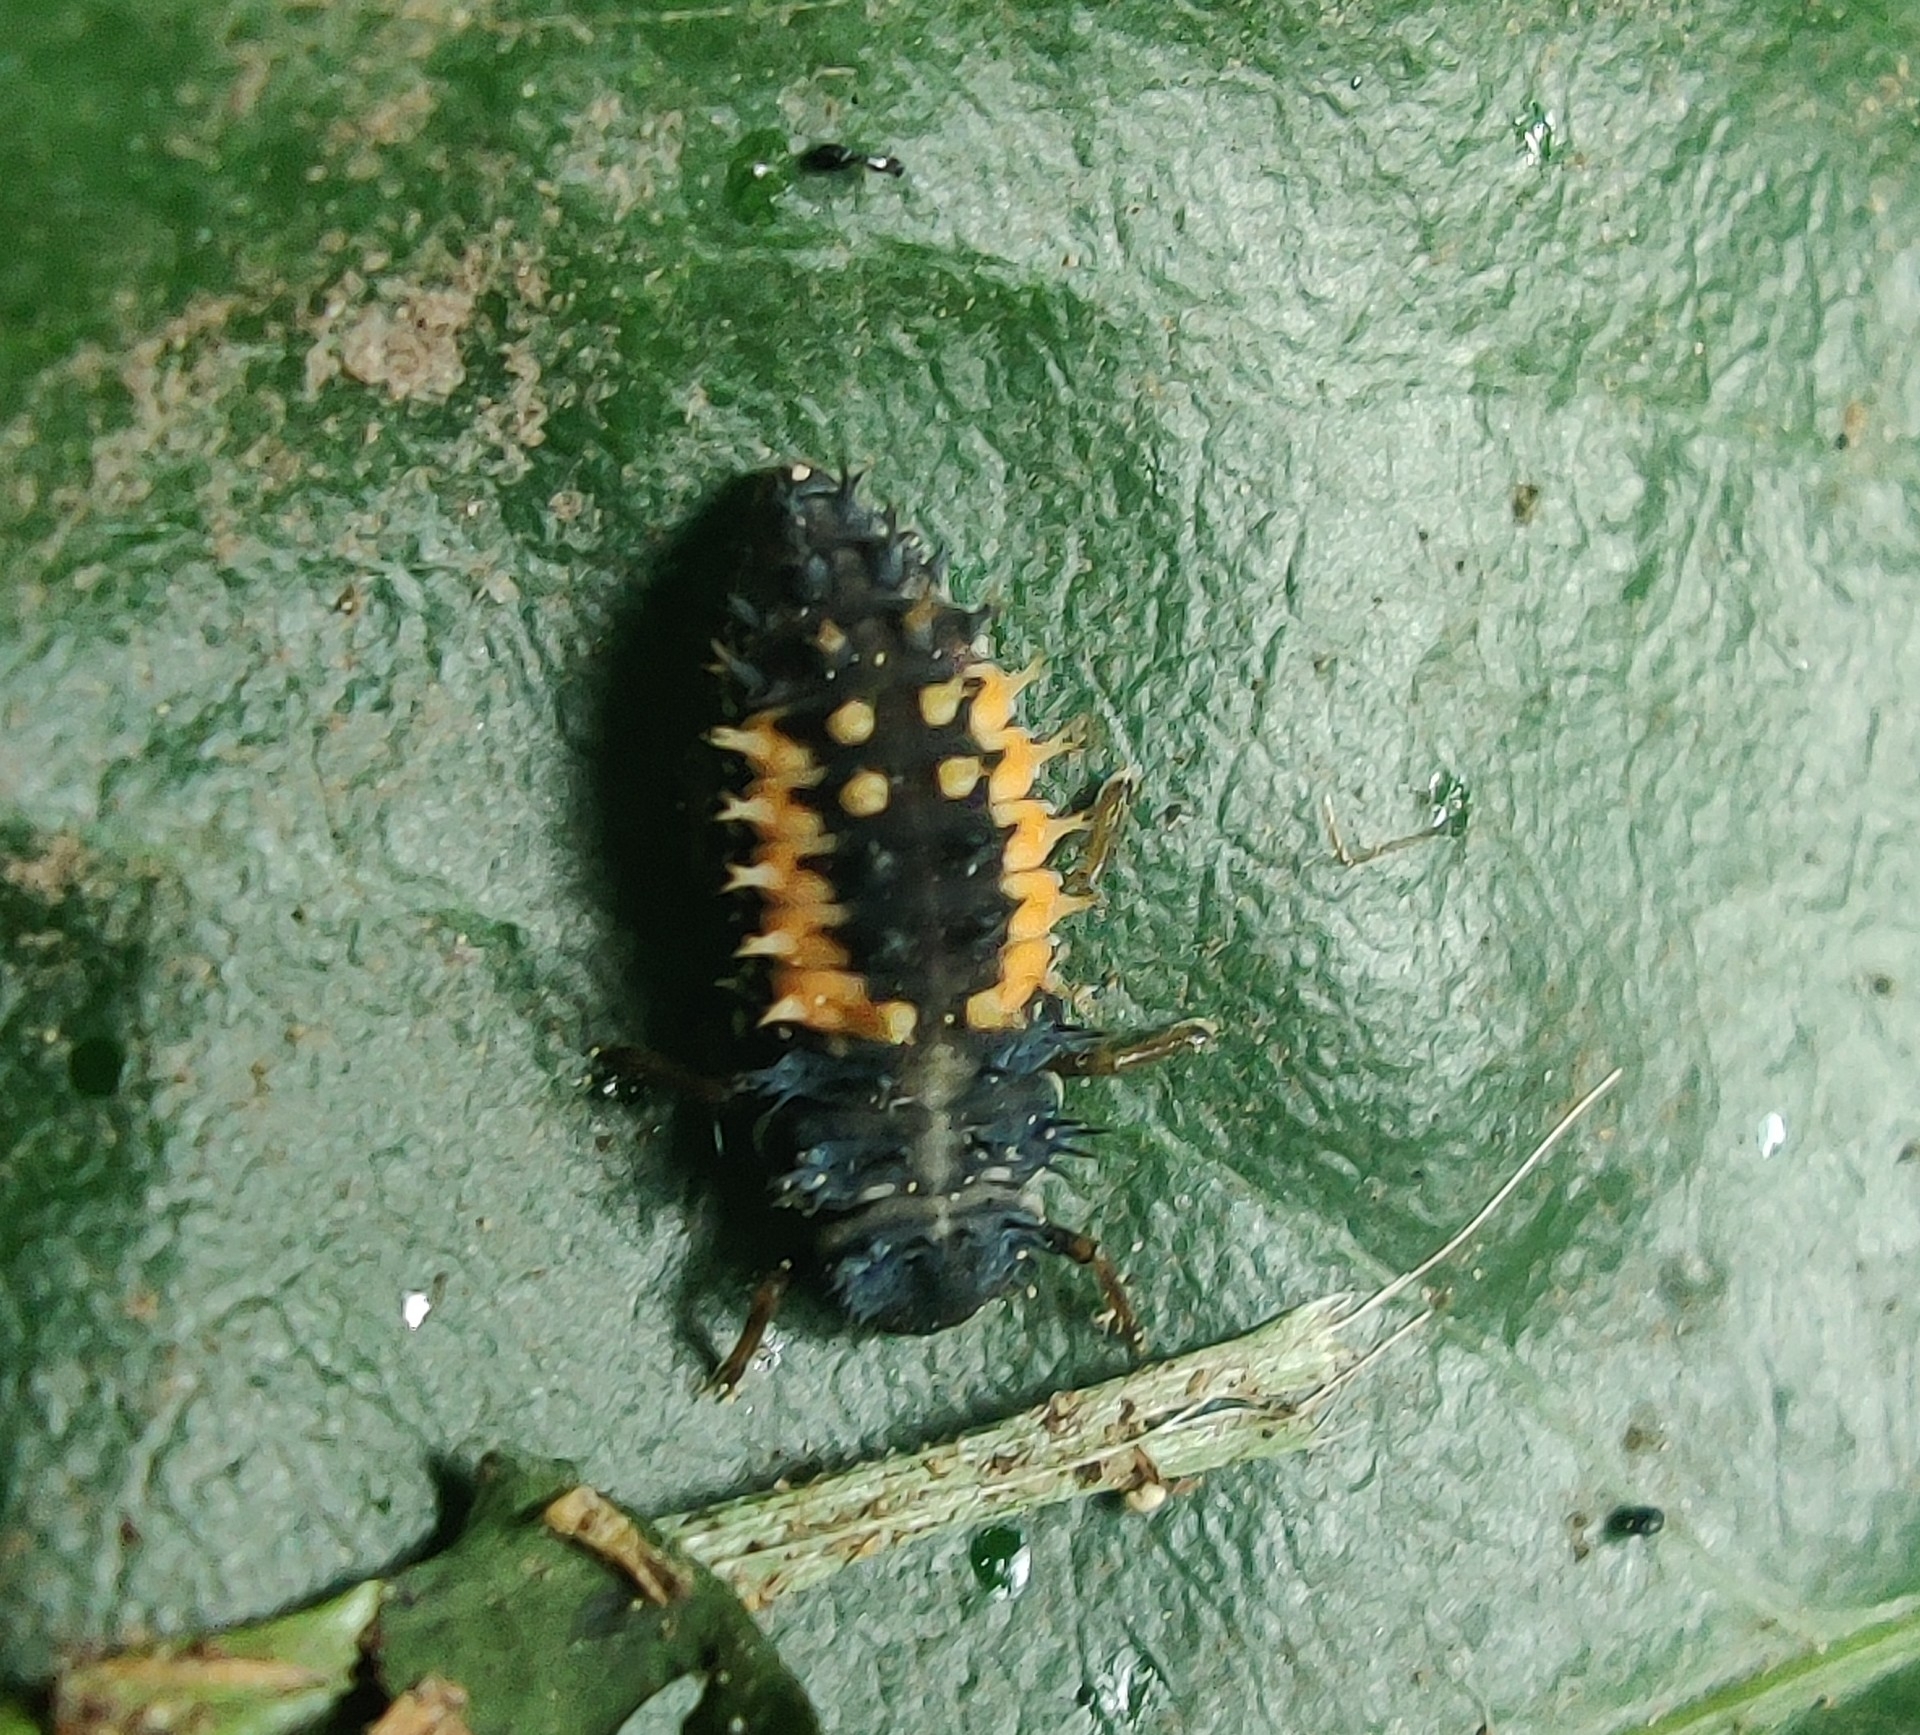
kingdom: Animalia
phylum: Arthropoda
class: Insecta
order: Coleoptera
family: Coccinellidae
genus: Harmonia
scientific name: Harmonia axyridis
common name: Harlequin ladybird
